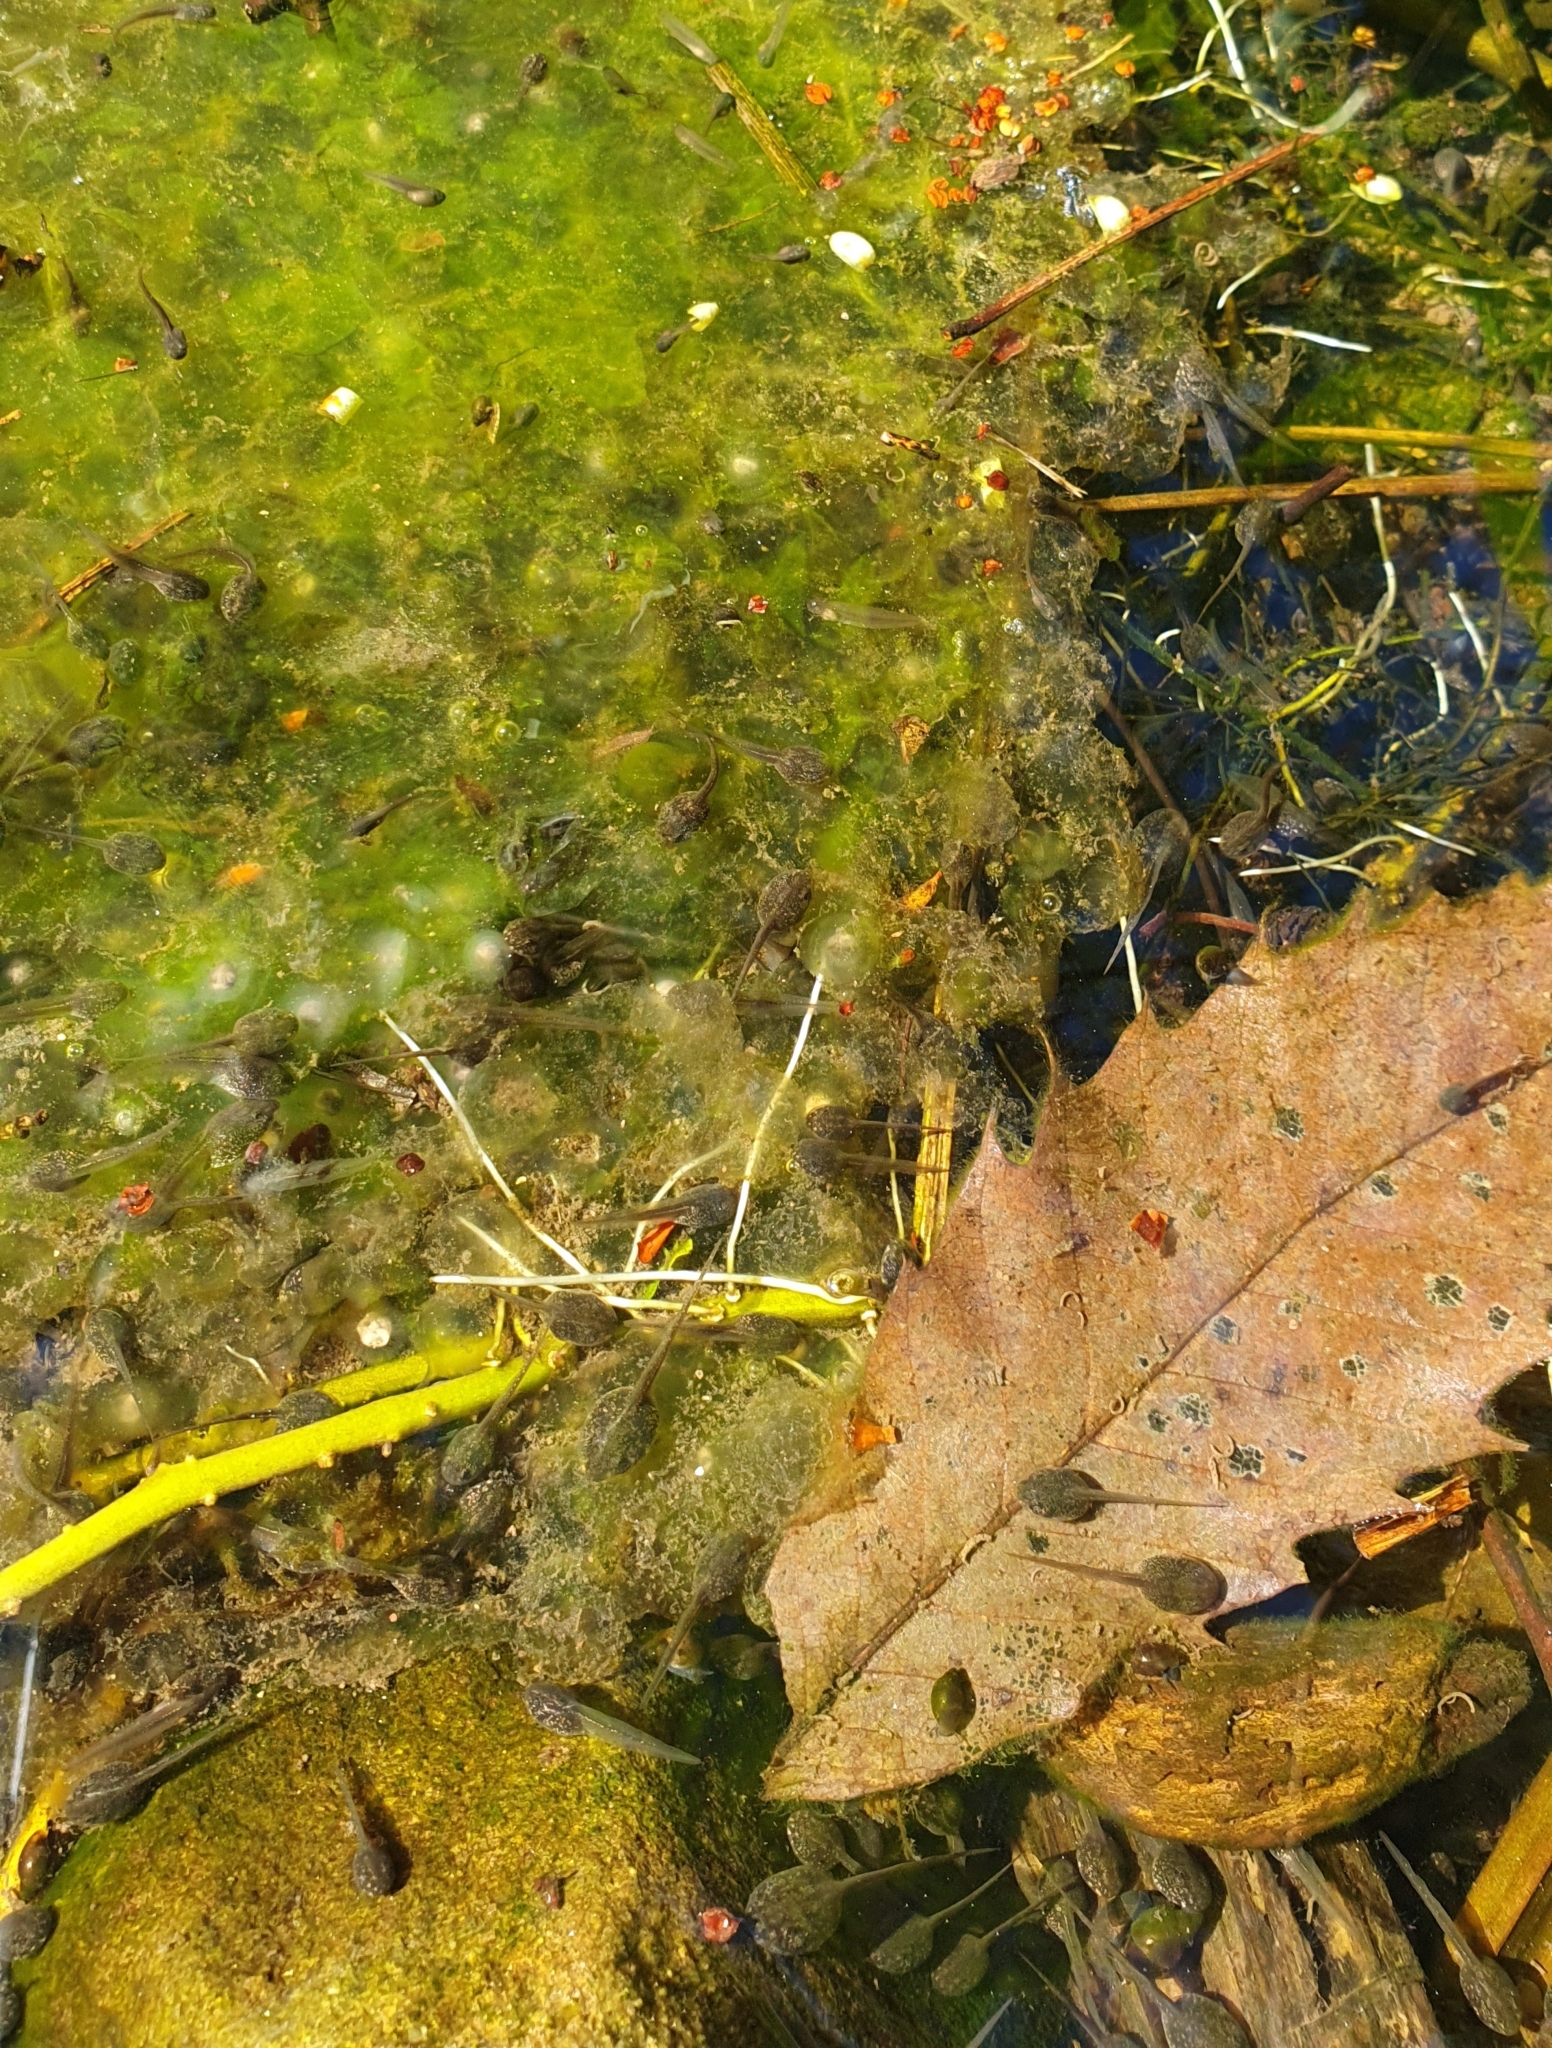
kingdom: Animalia
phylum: Chordata
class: Amphibia
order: Anura
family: Ranidae
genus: Rana
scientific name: Rana dalmatina
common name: Agile frog
